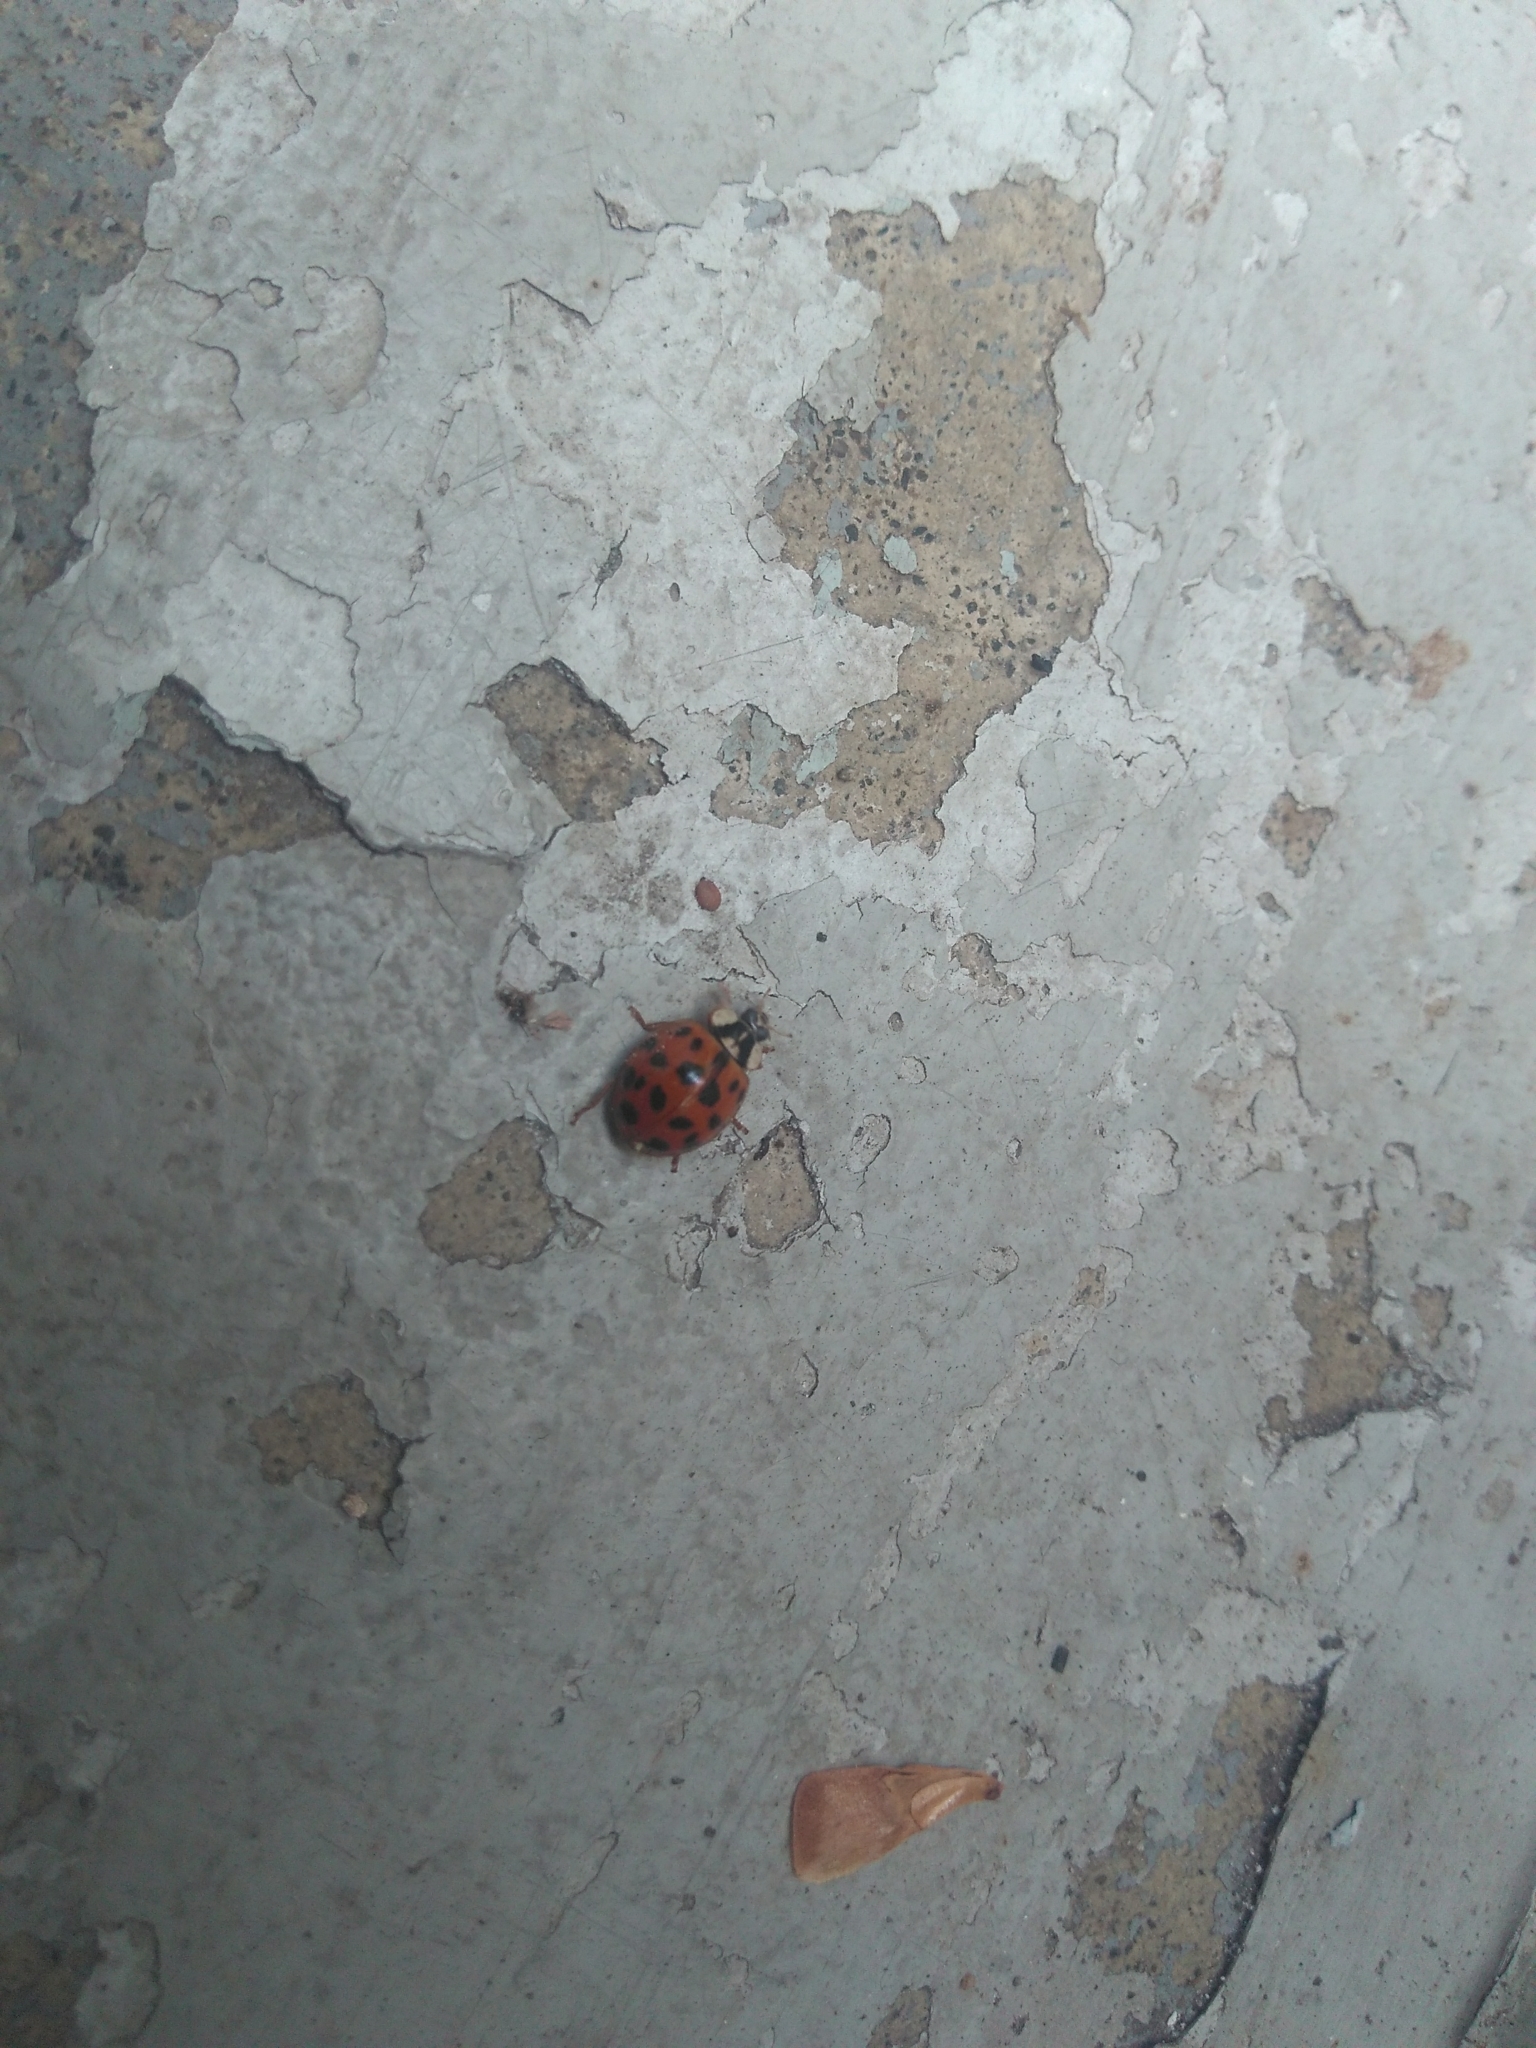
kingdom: Animalia
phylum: Arthropoda
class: Insecta
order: Coleoptera
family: Coccinellidae
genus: Harmonia
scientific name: Harmonia axyridis
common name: Harlequin ladybird
